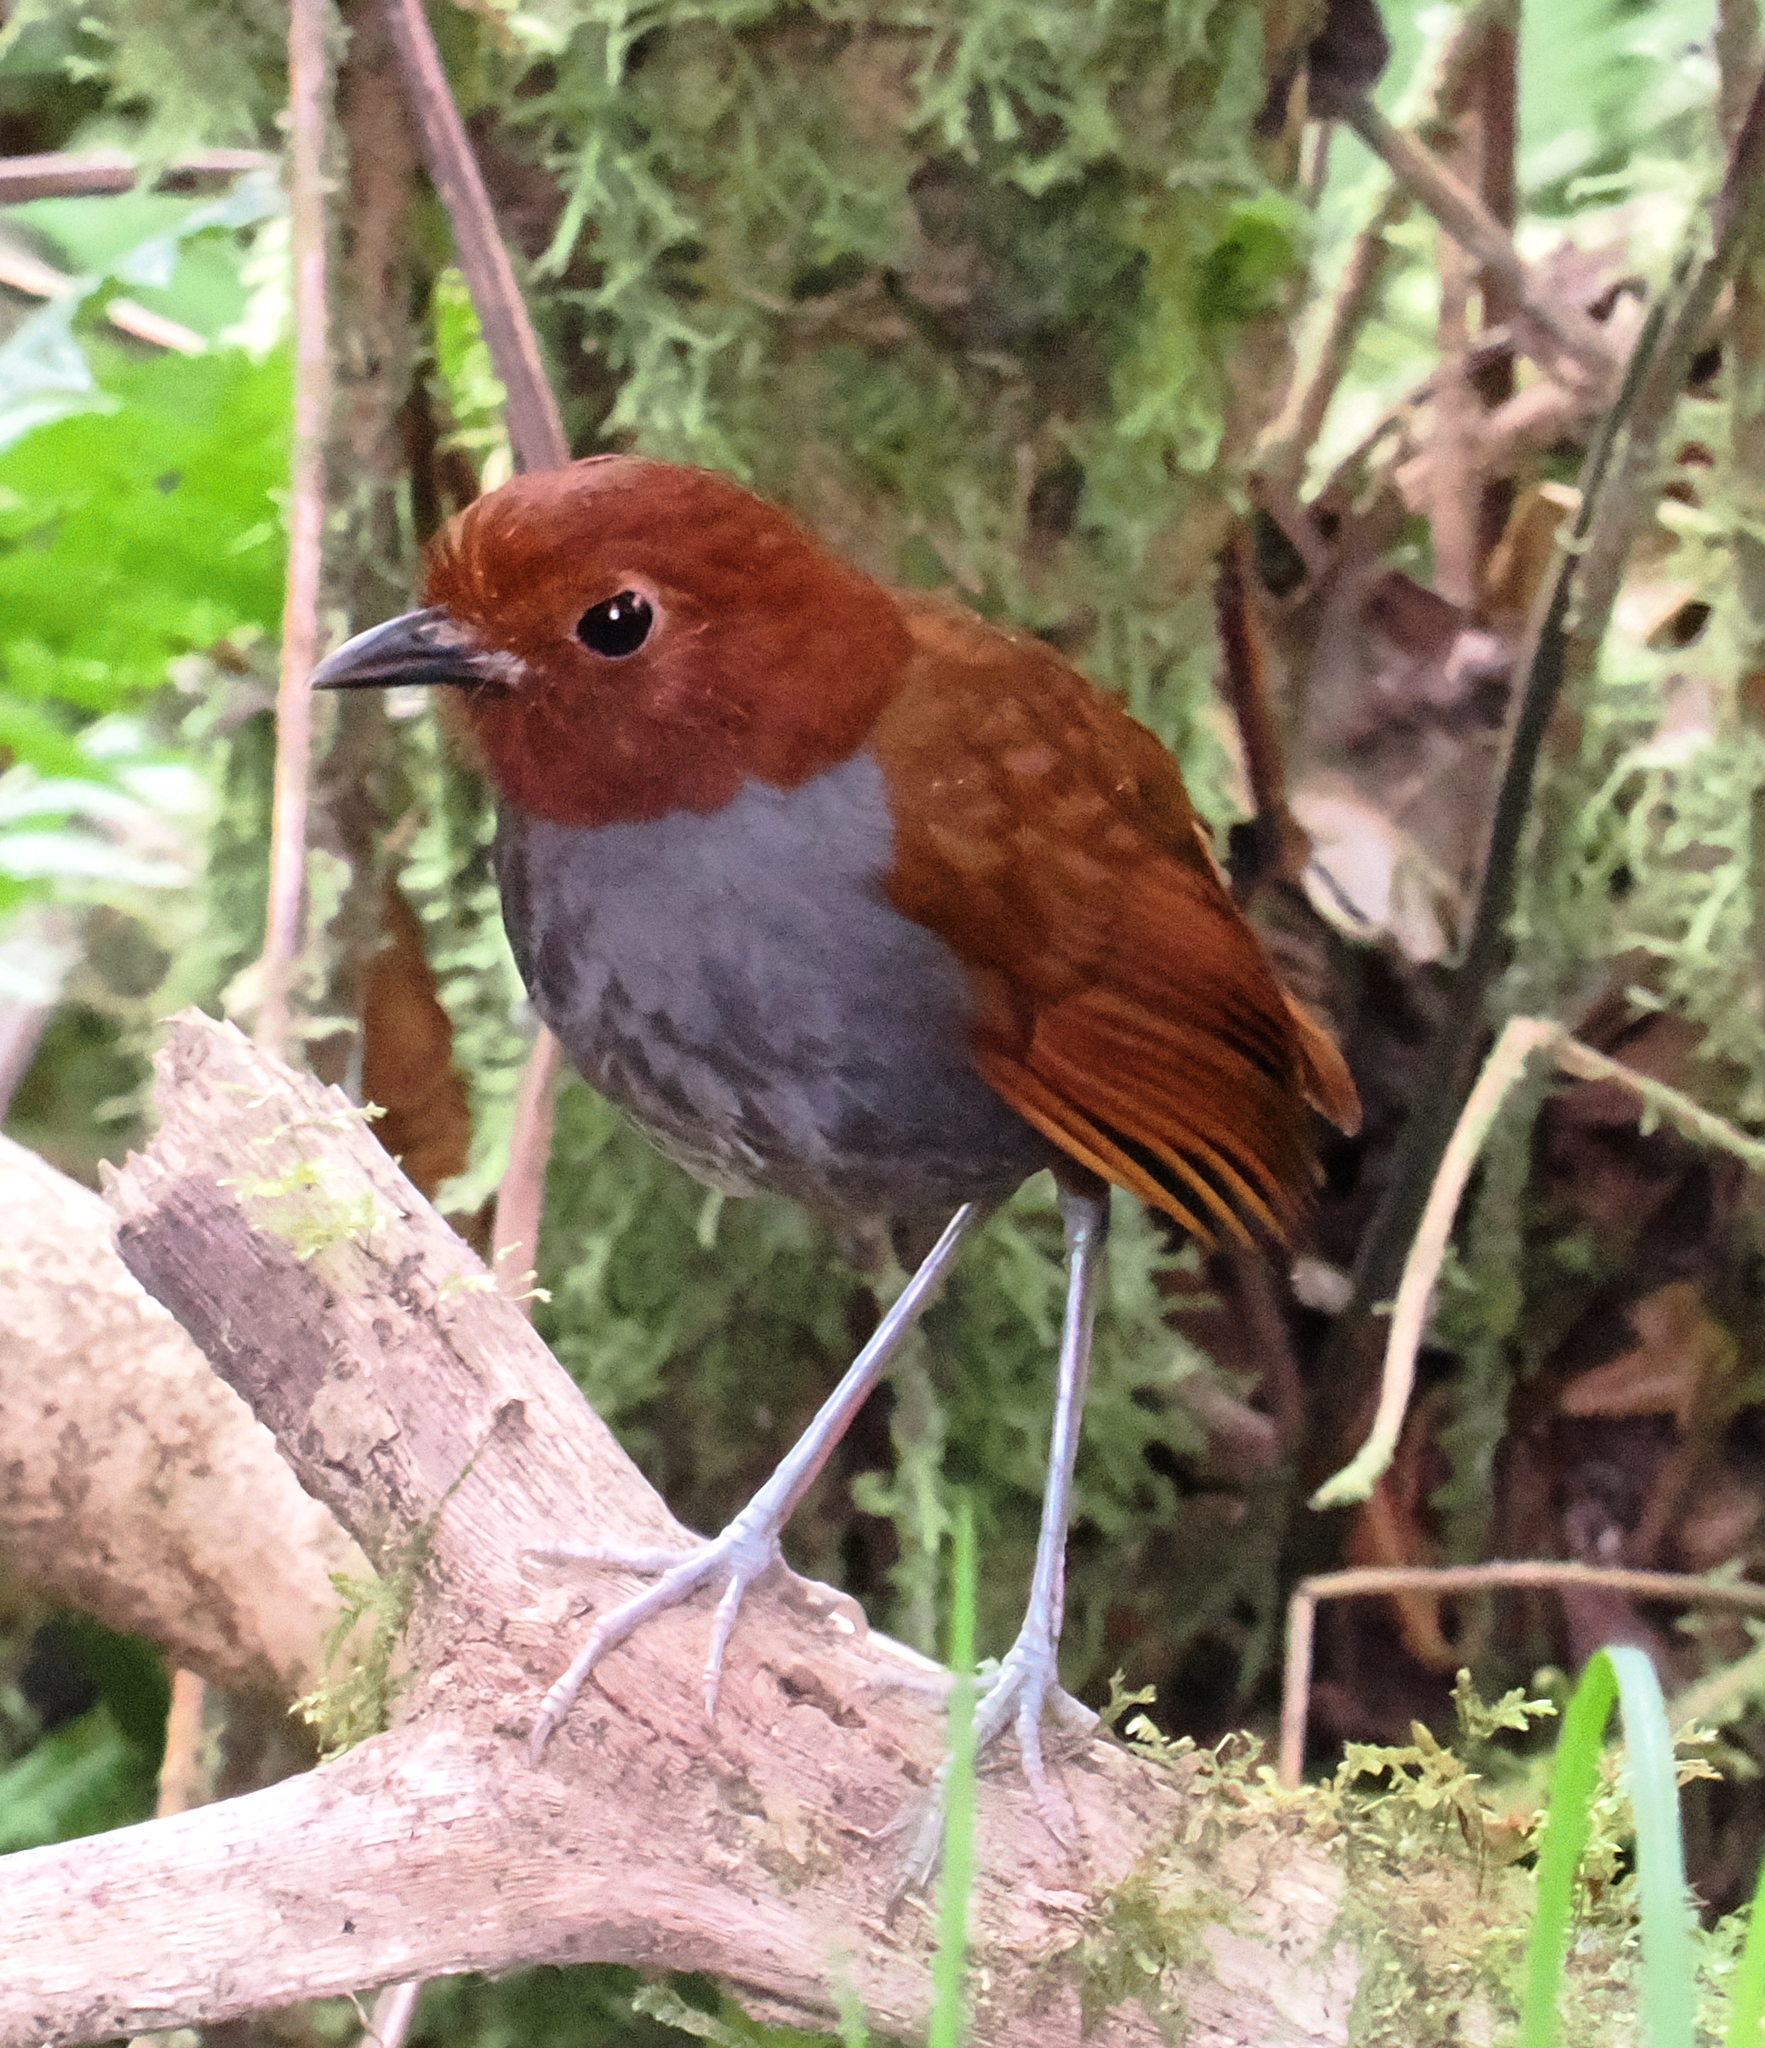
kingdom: Animalia
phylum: Chordata
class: Aves
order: Passeriformes
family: Grallariidae
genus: Grallaria
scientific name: Grallaria rufocinerea
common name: Bicolored antpitta
